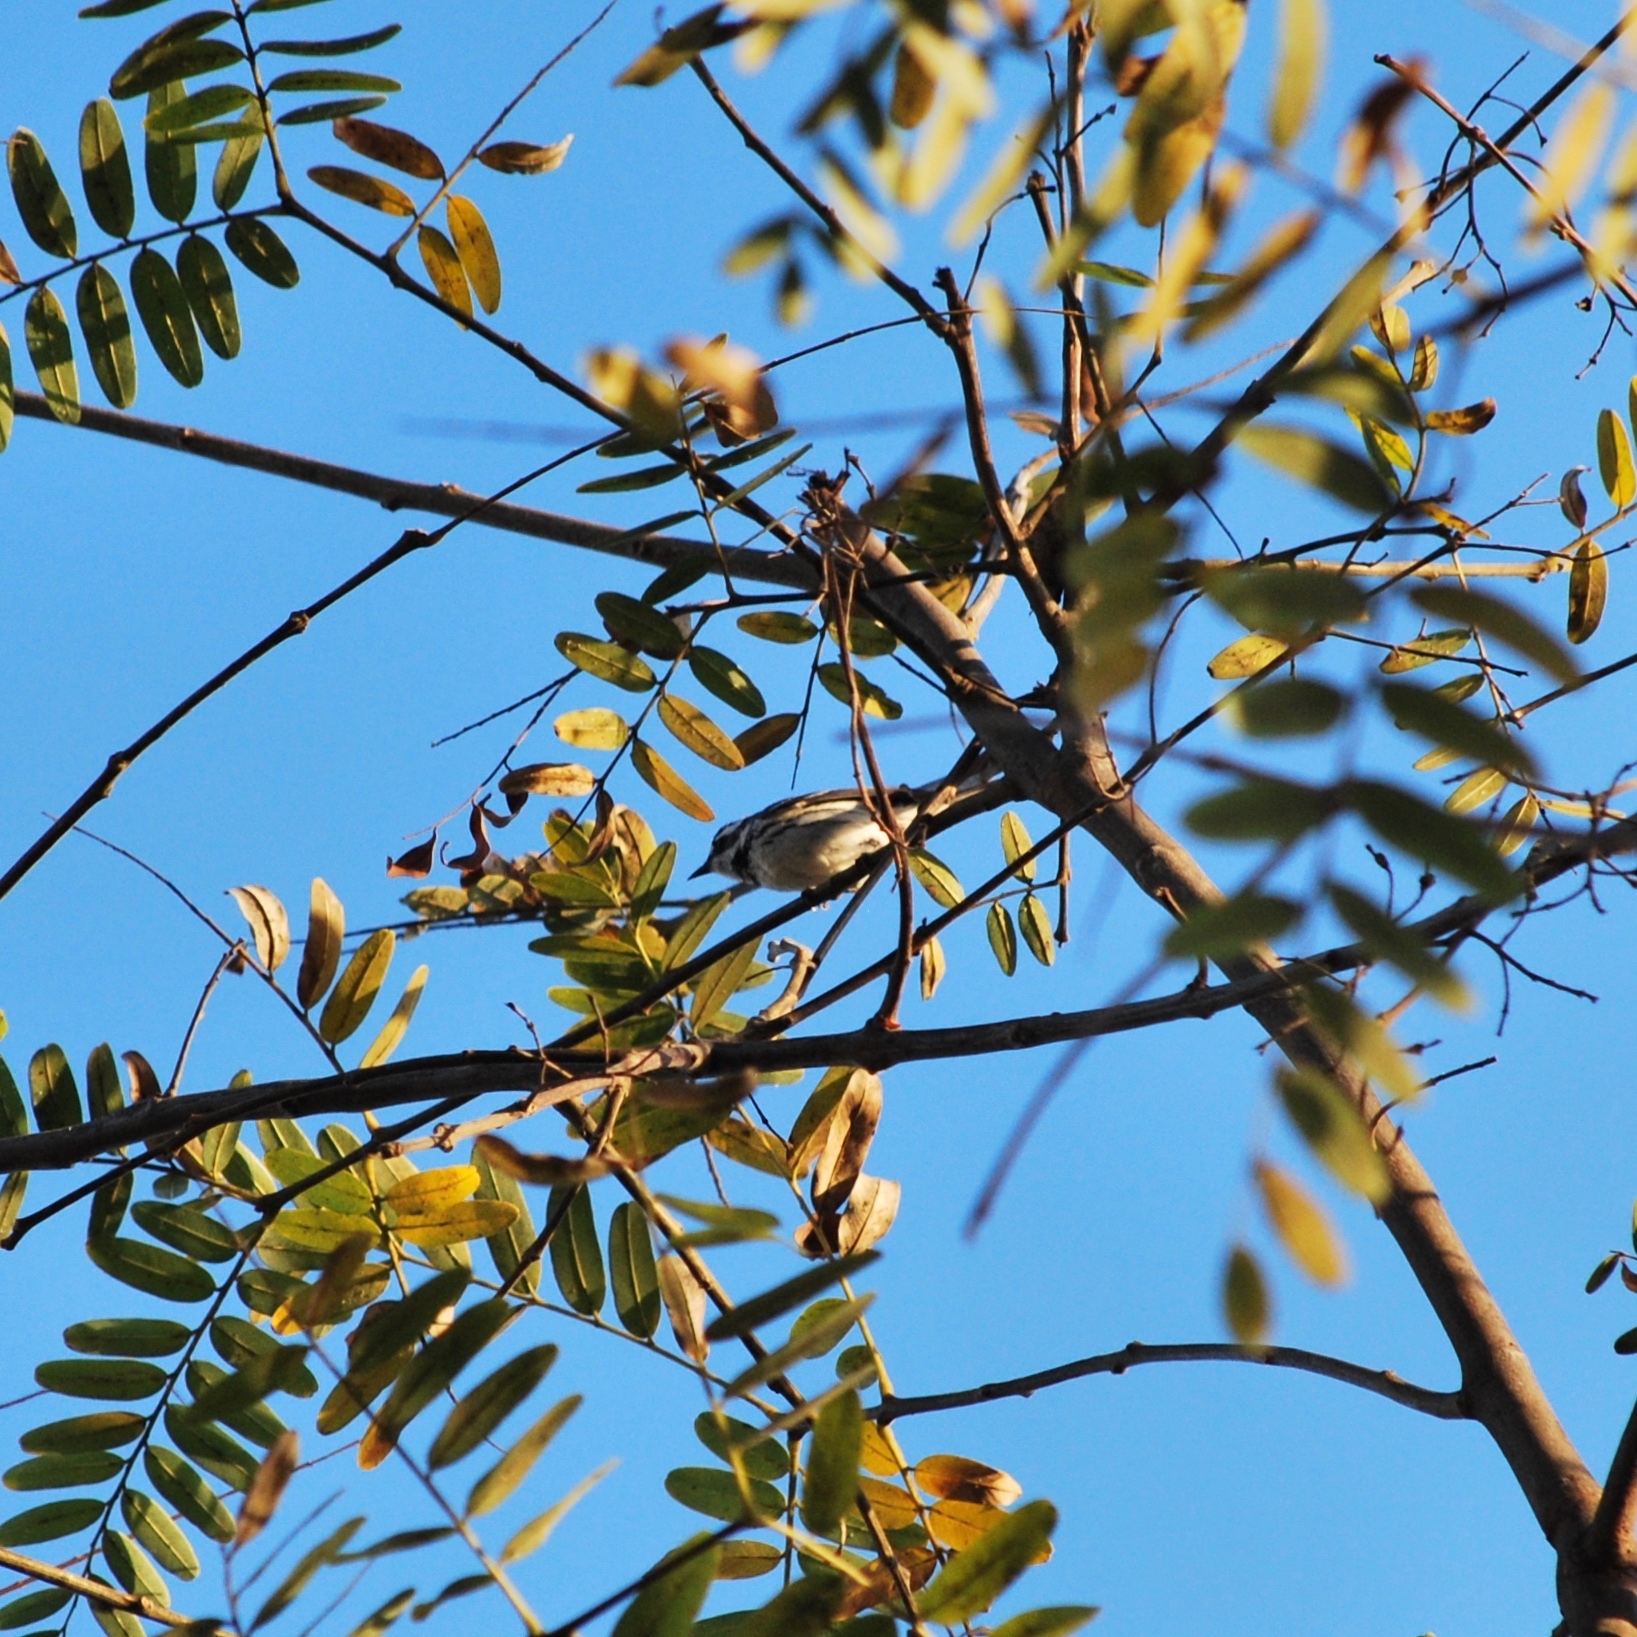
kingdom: Animalia
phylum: Chordata
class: Aves
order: Passeriformes
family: Parulidae
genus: Setophaga
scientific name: Setophaga nigrescens
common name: Black-throated gray warbler
